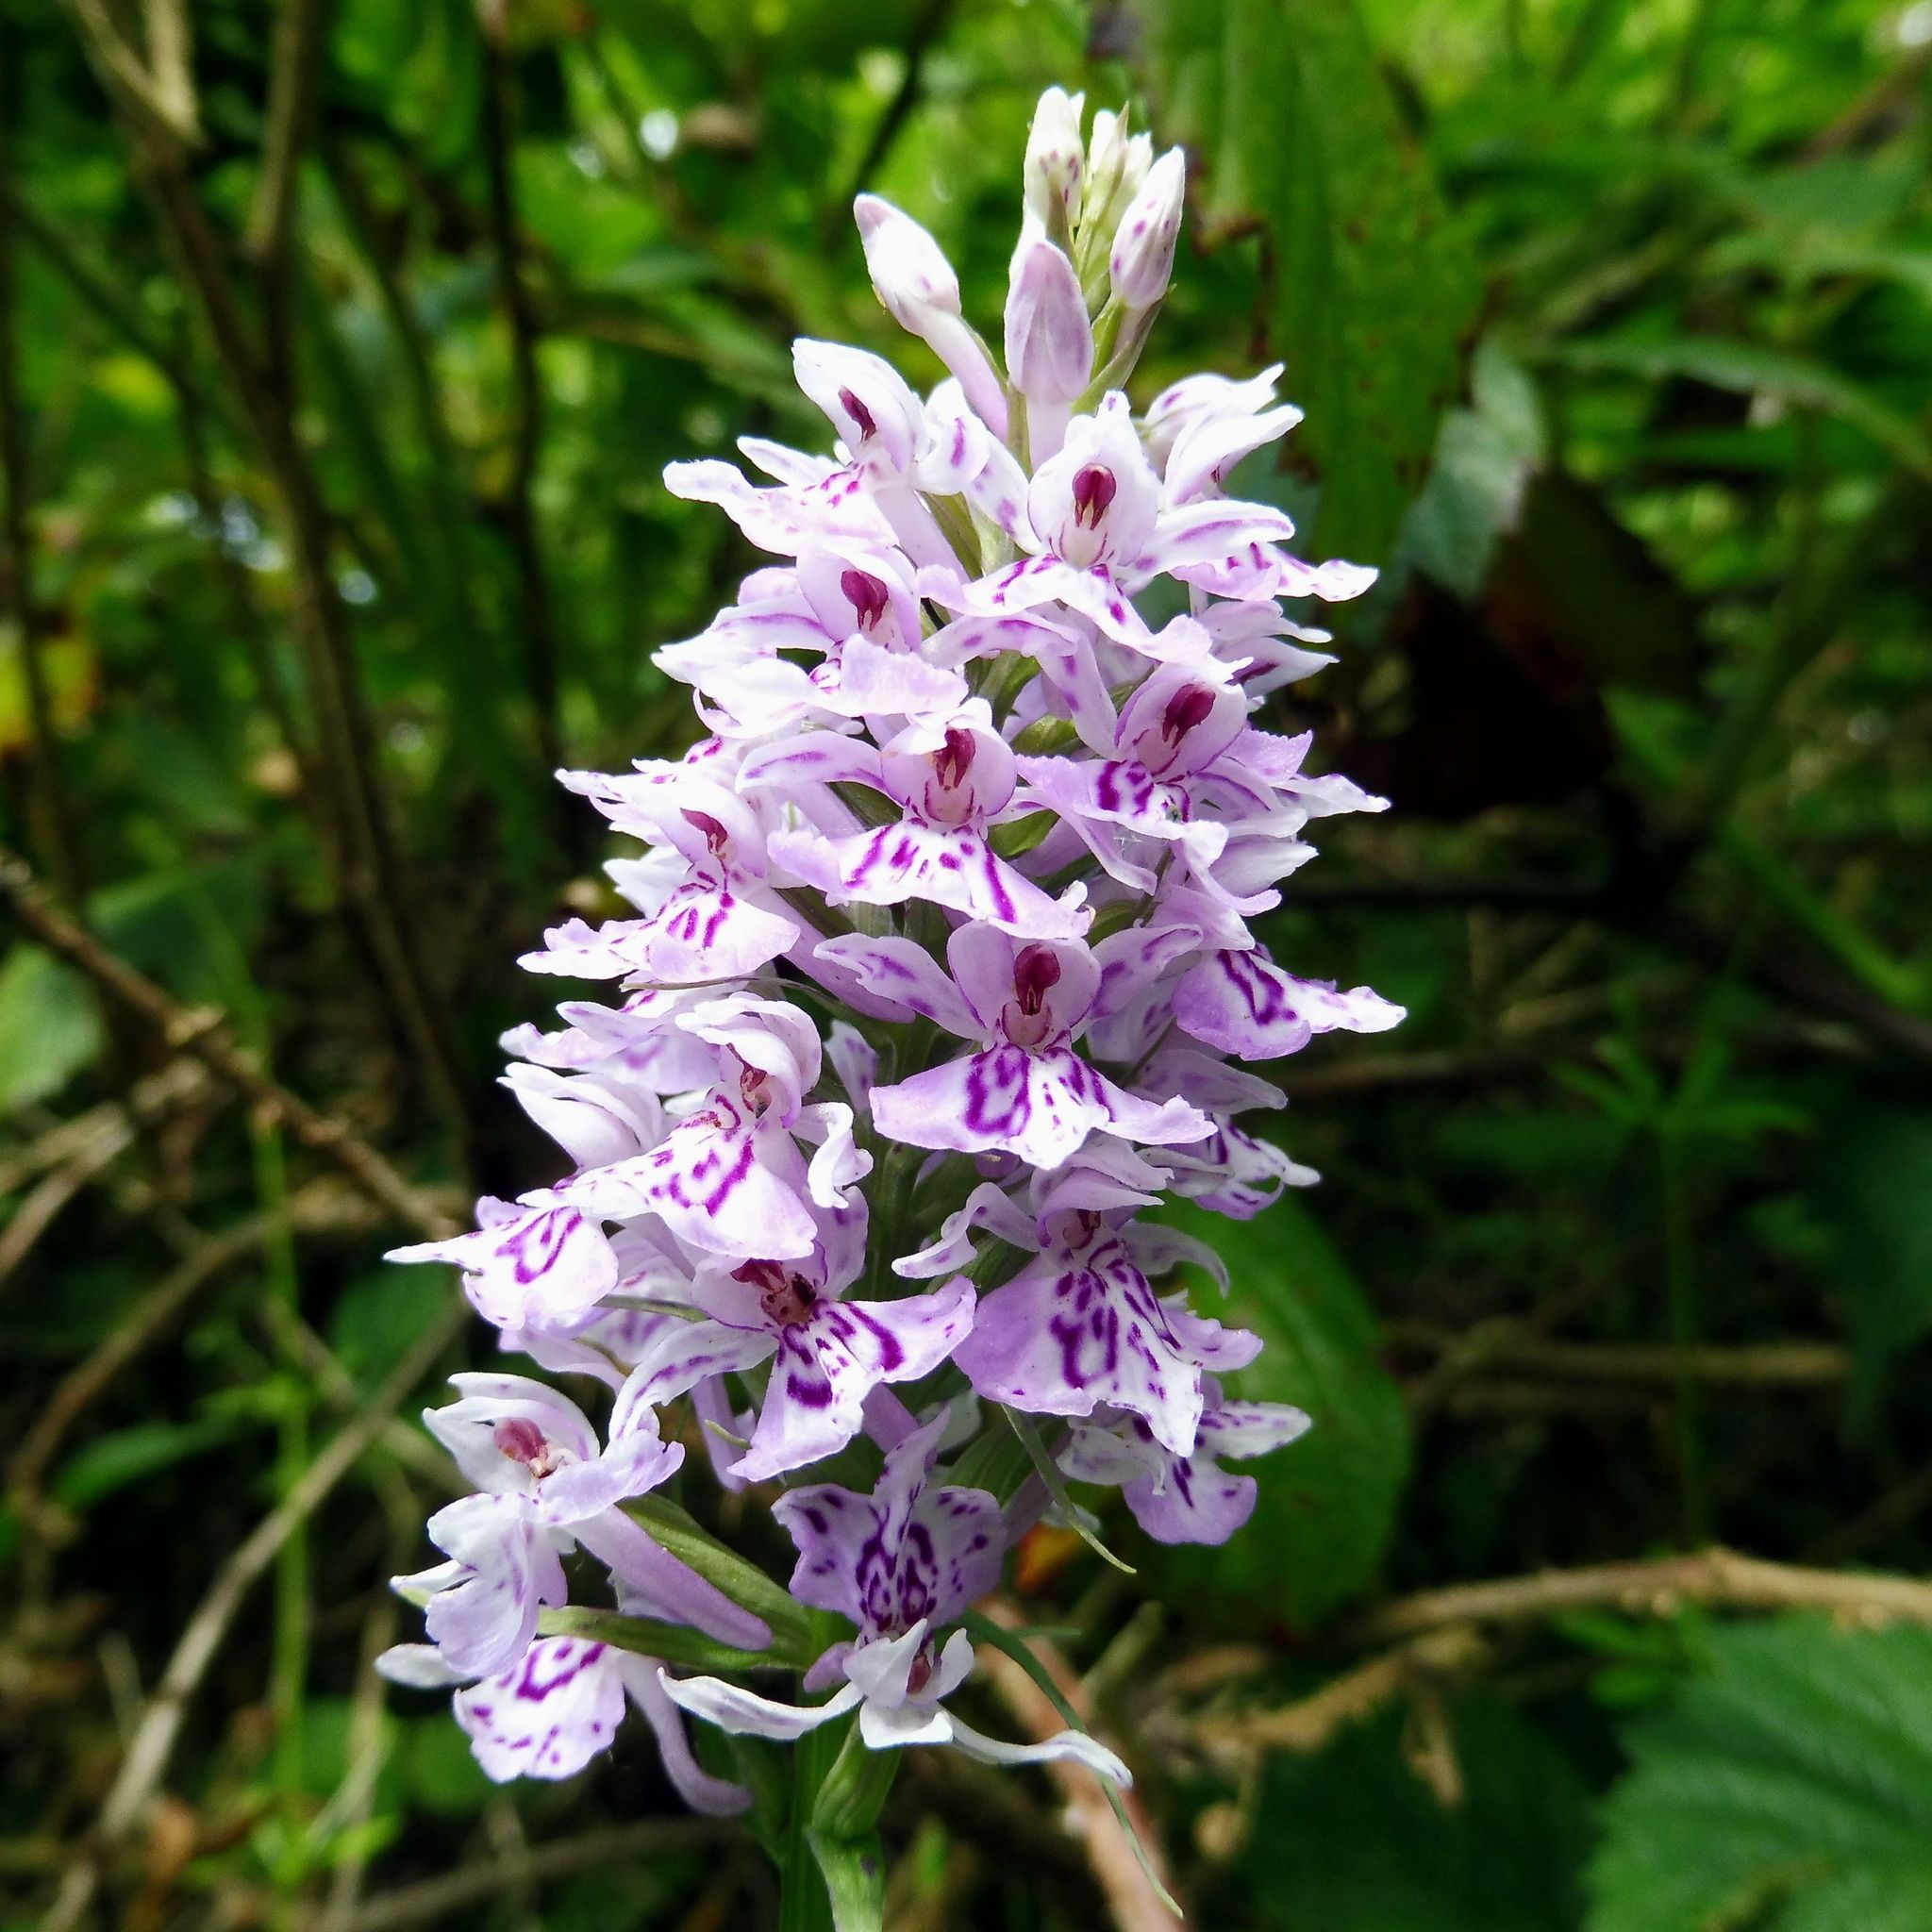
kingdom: Plantae
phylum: Tracheophyta
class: Liliopsida
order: Asparagales
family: Orchidaceae
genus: Dactylorhiza
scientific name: Dactylorhiza maculata
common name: Heath spotted-orchid
